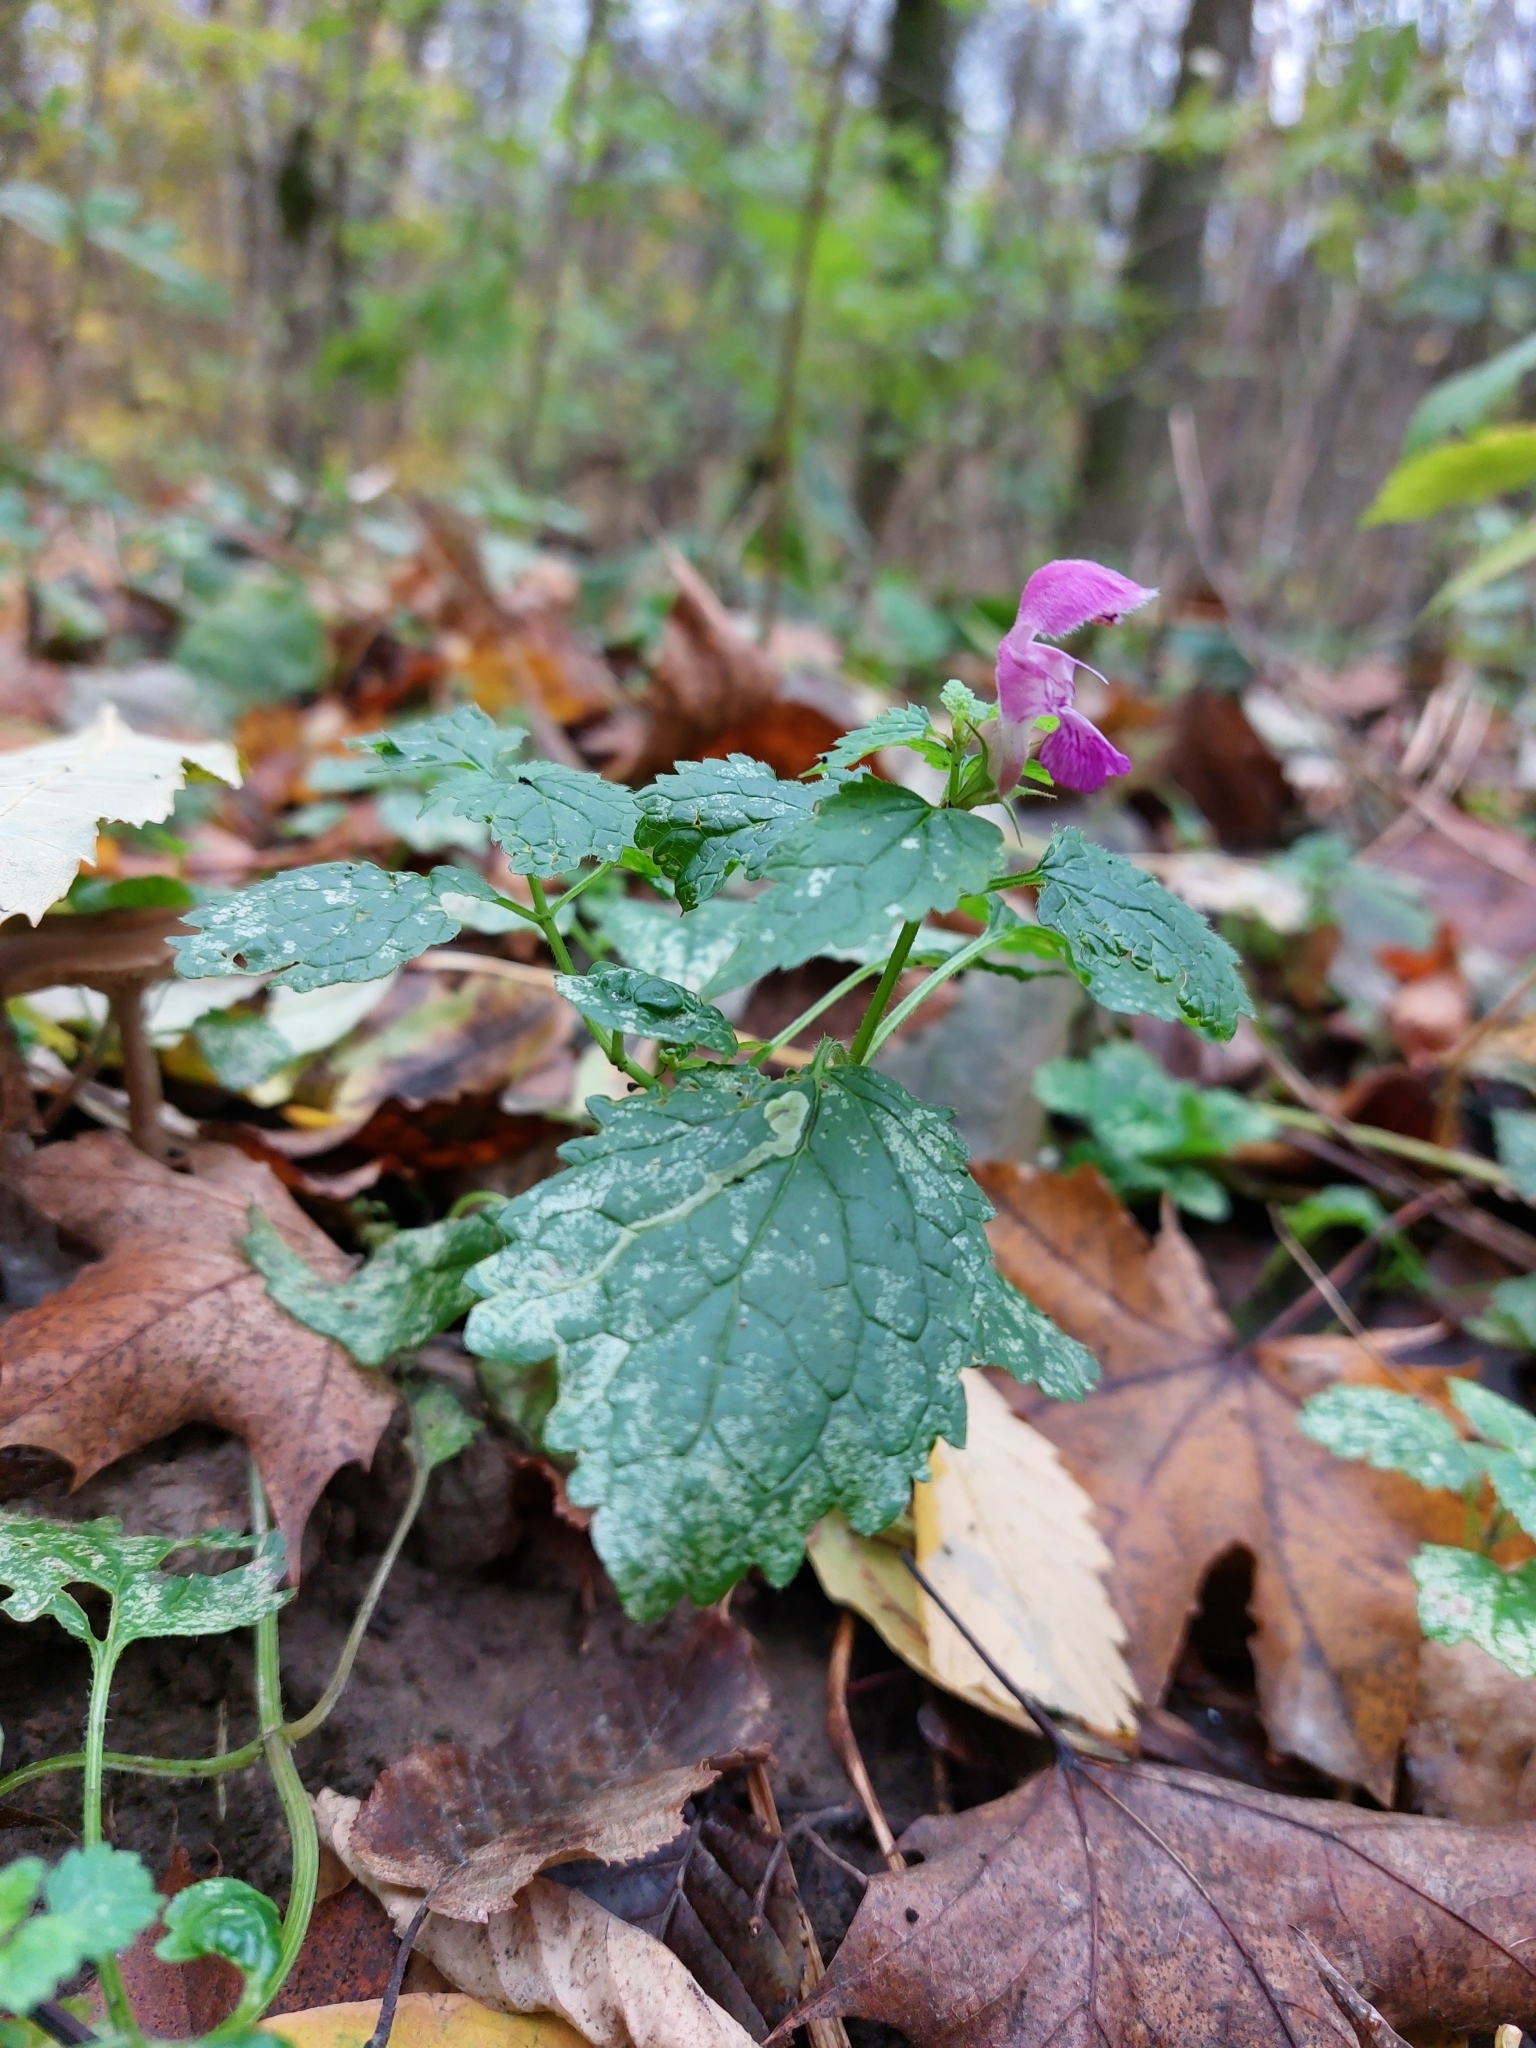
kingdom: Plantae
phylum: Tracheophyta
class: Magnoliopsida
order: Lamiales
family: Lamiaceae
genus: Lamium
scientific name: Lamium maculatum
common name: Spotted dead-nettle
